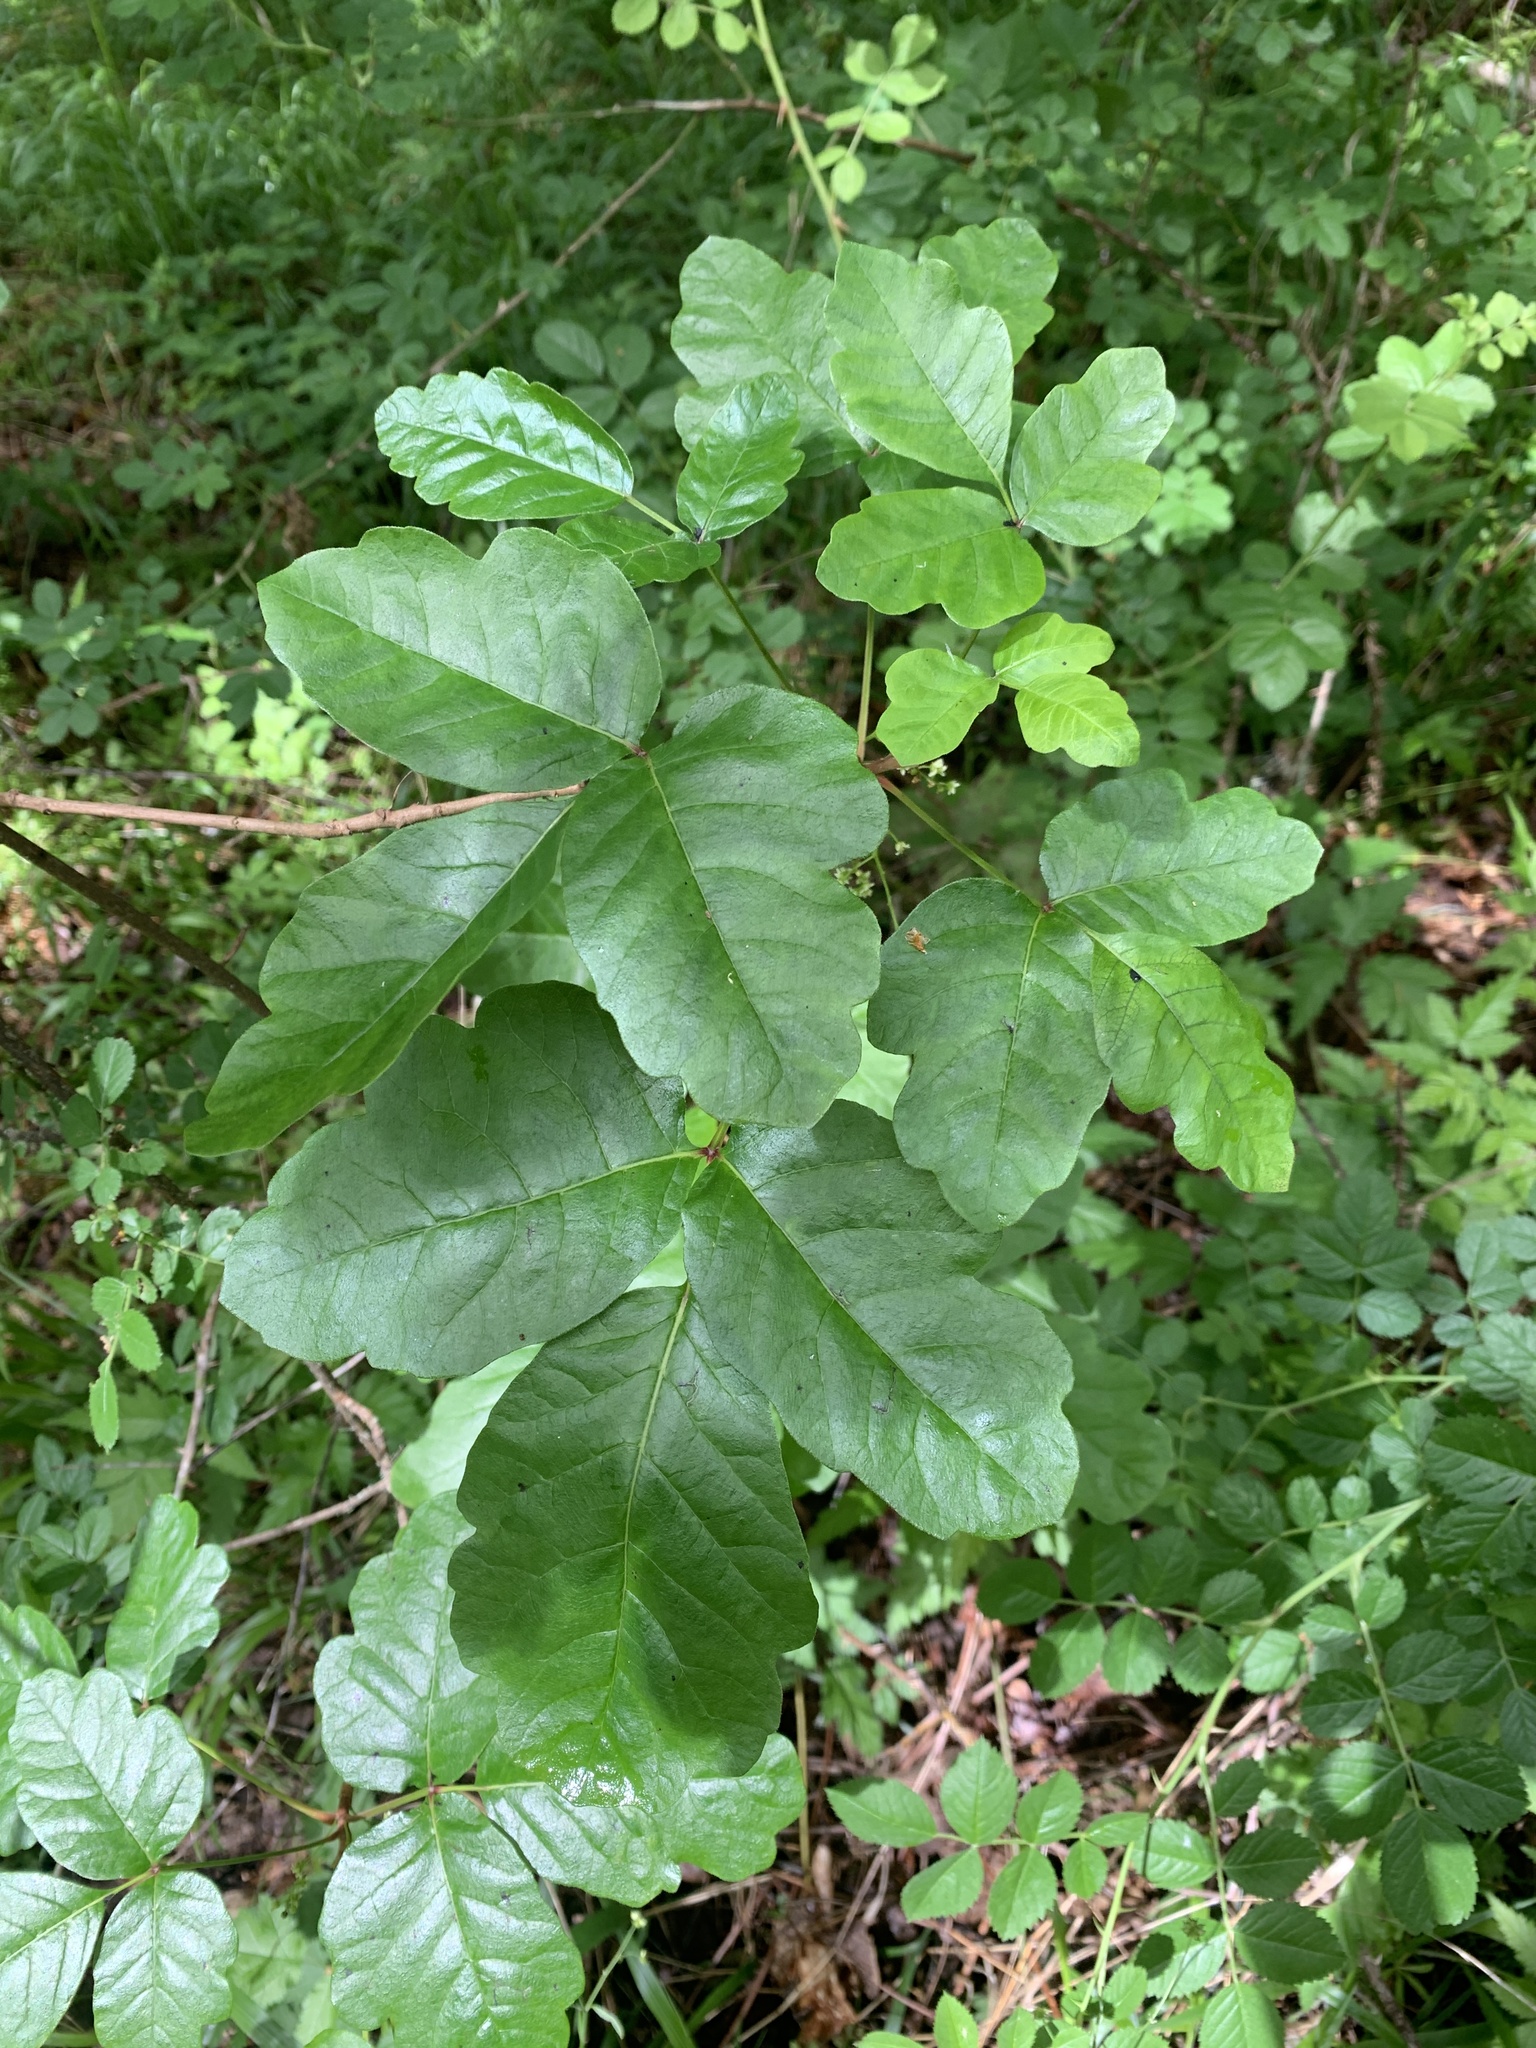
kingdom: Plantae
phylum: Tracheophyta
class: Magnoliopsida
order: Sapindales
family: Anacardiaceae
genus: Toxicodendron
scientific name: Toxicodendron diversilobum
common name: Pacific poison-oak
